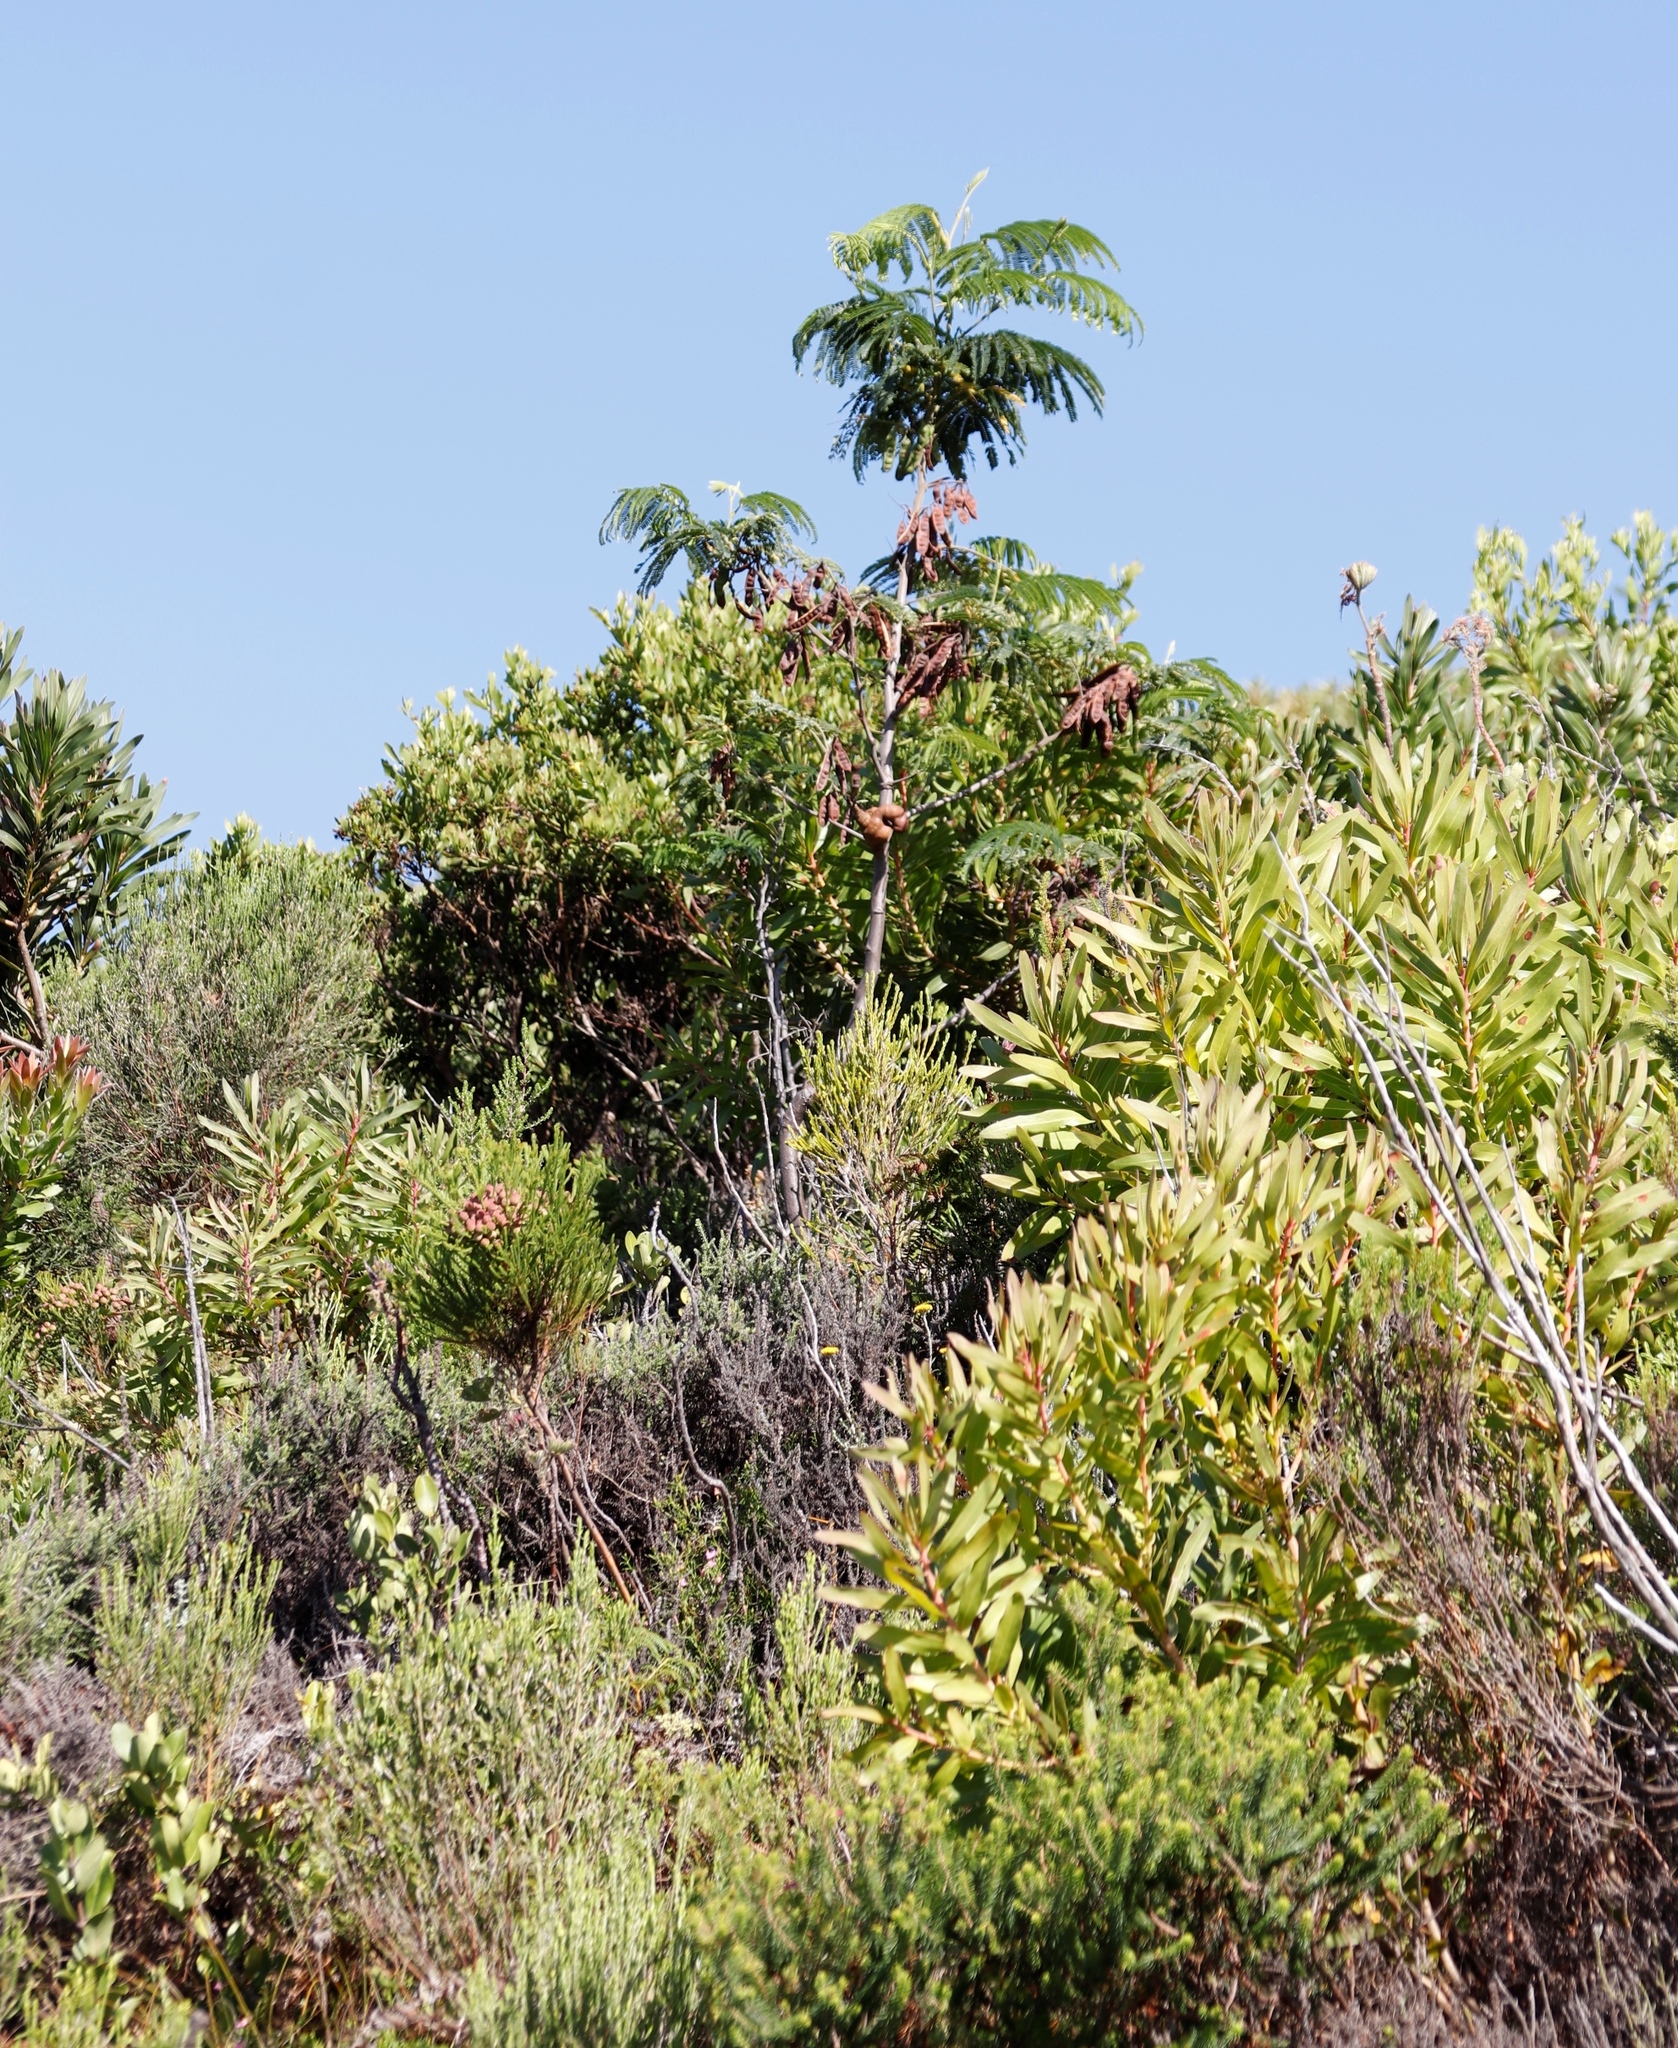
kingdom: Plantae
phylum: Tracheophyta
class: Magnoliopsida
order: Fabales
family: Fabaceae
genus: Paraserianthes
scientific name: Paraserianthes lophantha
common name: Plume albizia
